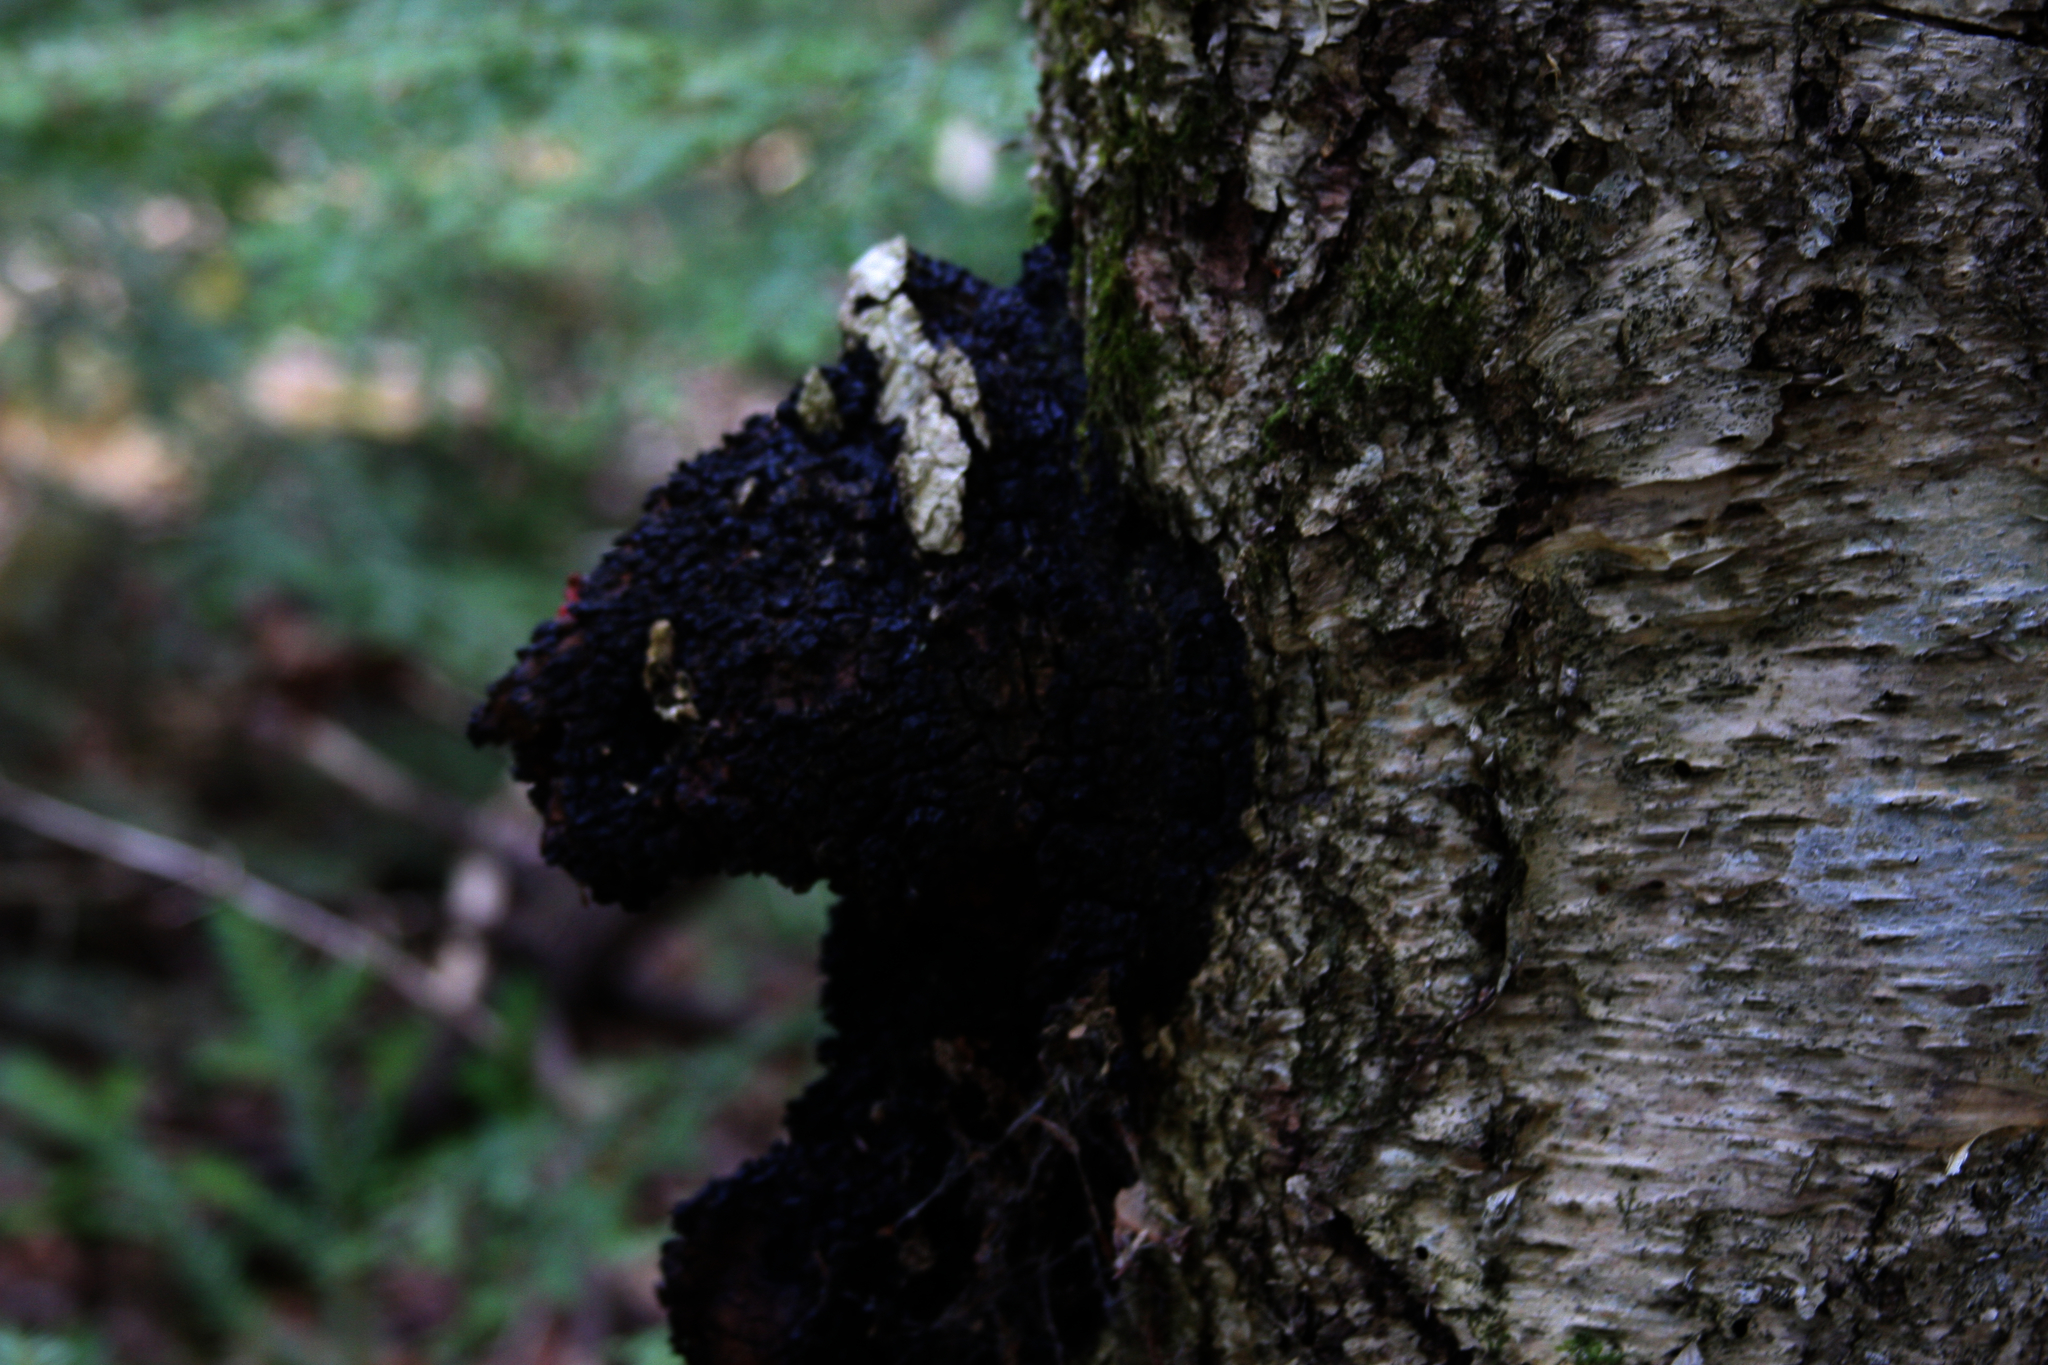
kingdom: Fungi
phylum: Basidiomycota
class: Agaricomycetes
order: Hymenochaetales
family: Hymenochaetaceae
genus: Inonotus
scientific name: Inonotus obliquus
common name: Chaga
